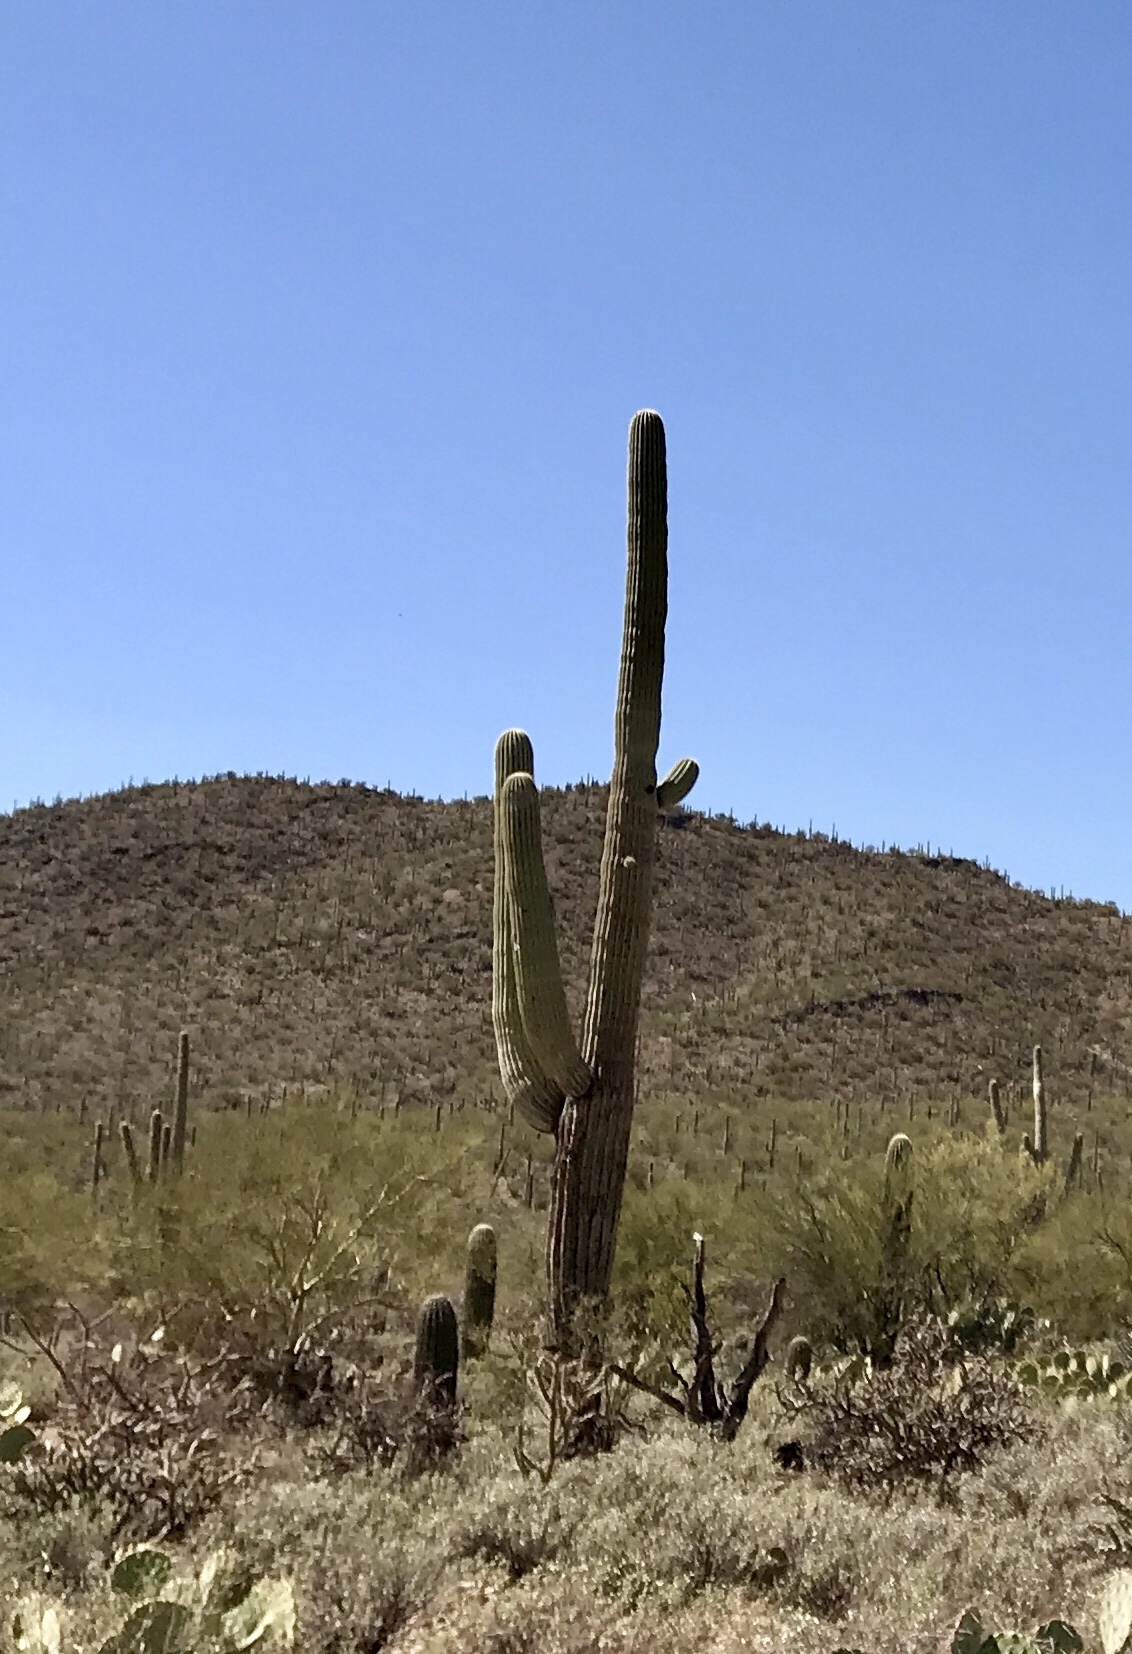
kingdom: Plantae
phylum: Tracheophyta
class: Magnoliopsida
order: Caryophyllales
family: Cactaceae
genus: Carnegiea
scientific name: Carnegiea gigantea
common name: Saguaro
